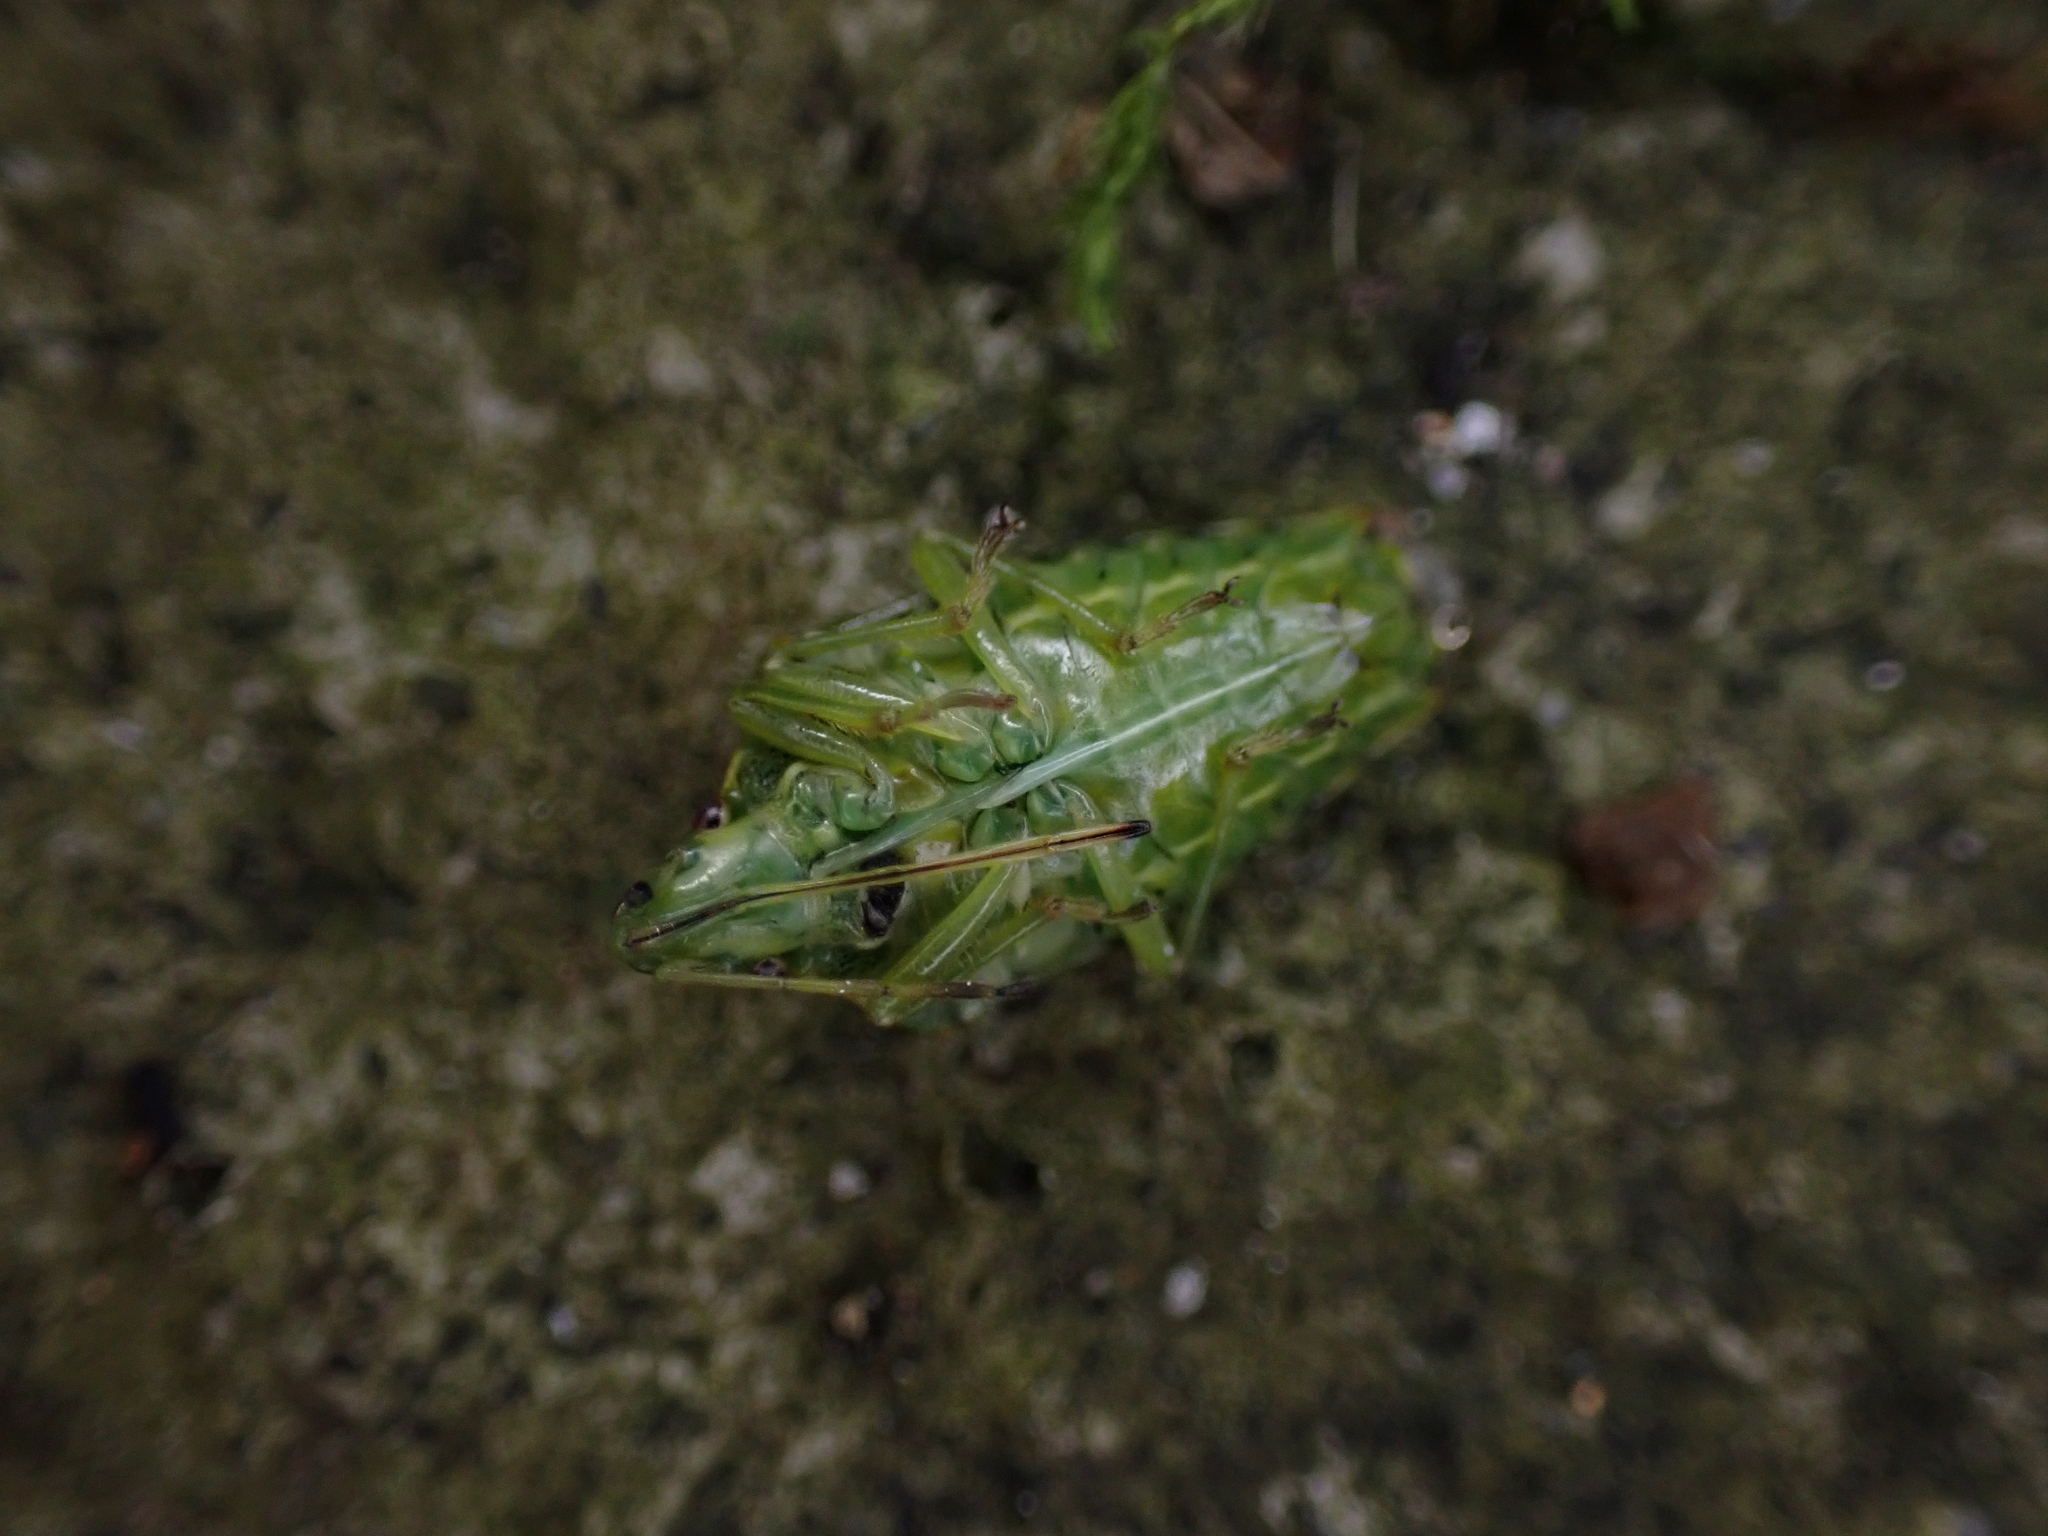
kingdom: Animalia
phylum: Arthropoda
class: Insecta
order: Hemiptera
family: Acanthosomatidae
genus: Cyphostethus
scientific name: Cyphostethus tristriatus
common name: Juniper shieldbug
